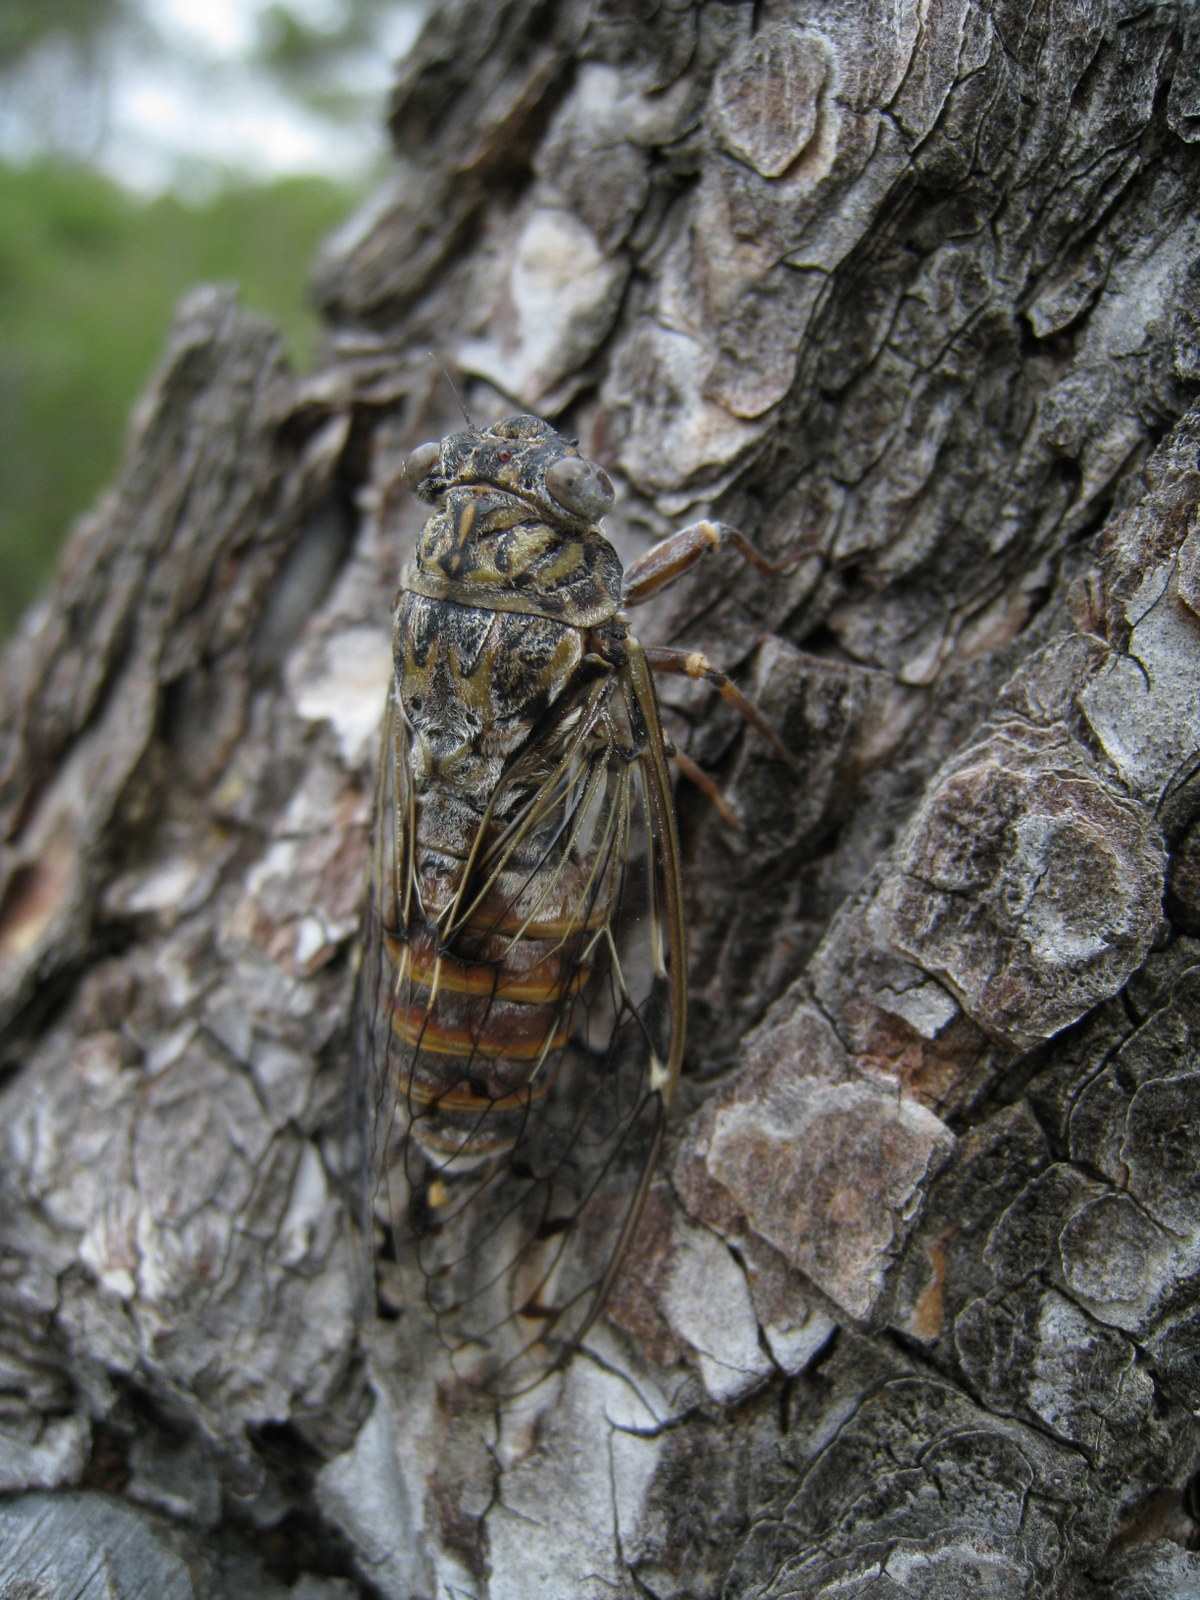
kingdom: Animalia
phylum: Arthropoda
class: Insecta
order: Hemiptera
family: Cicadidae
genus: Cicada
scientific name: Cicada orni
